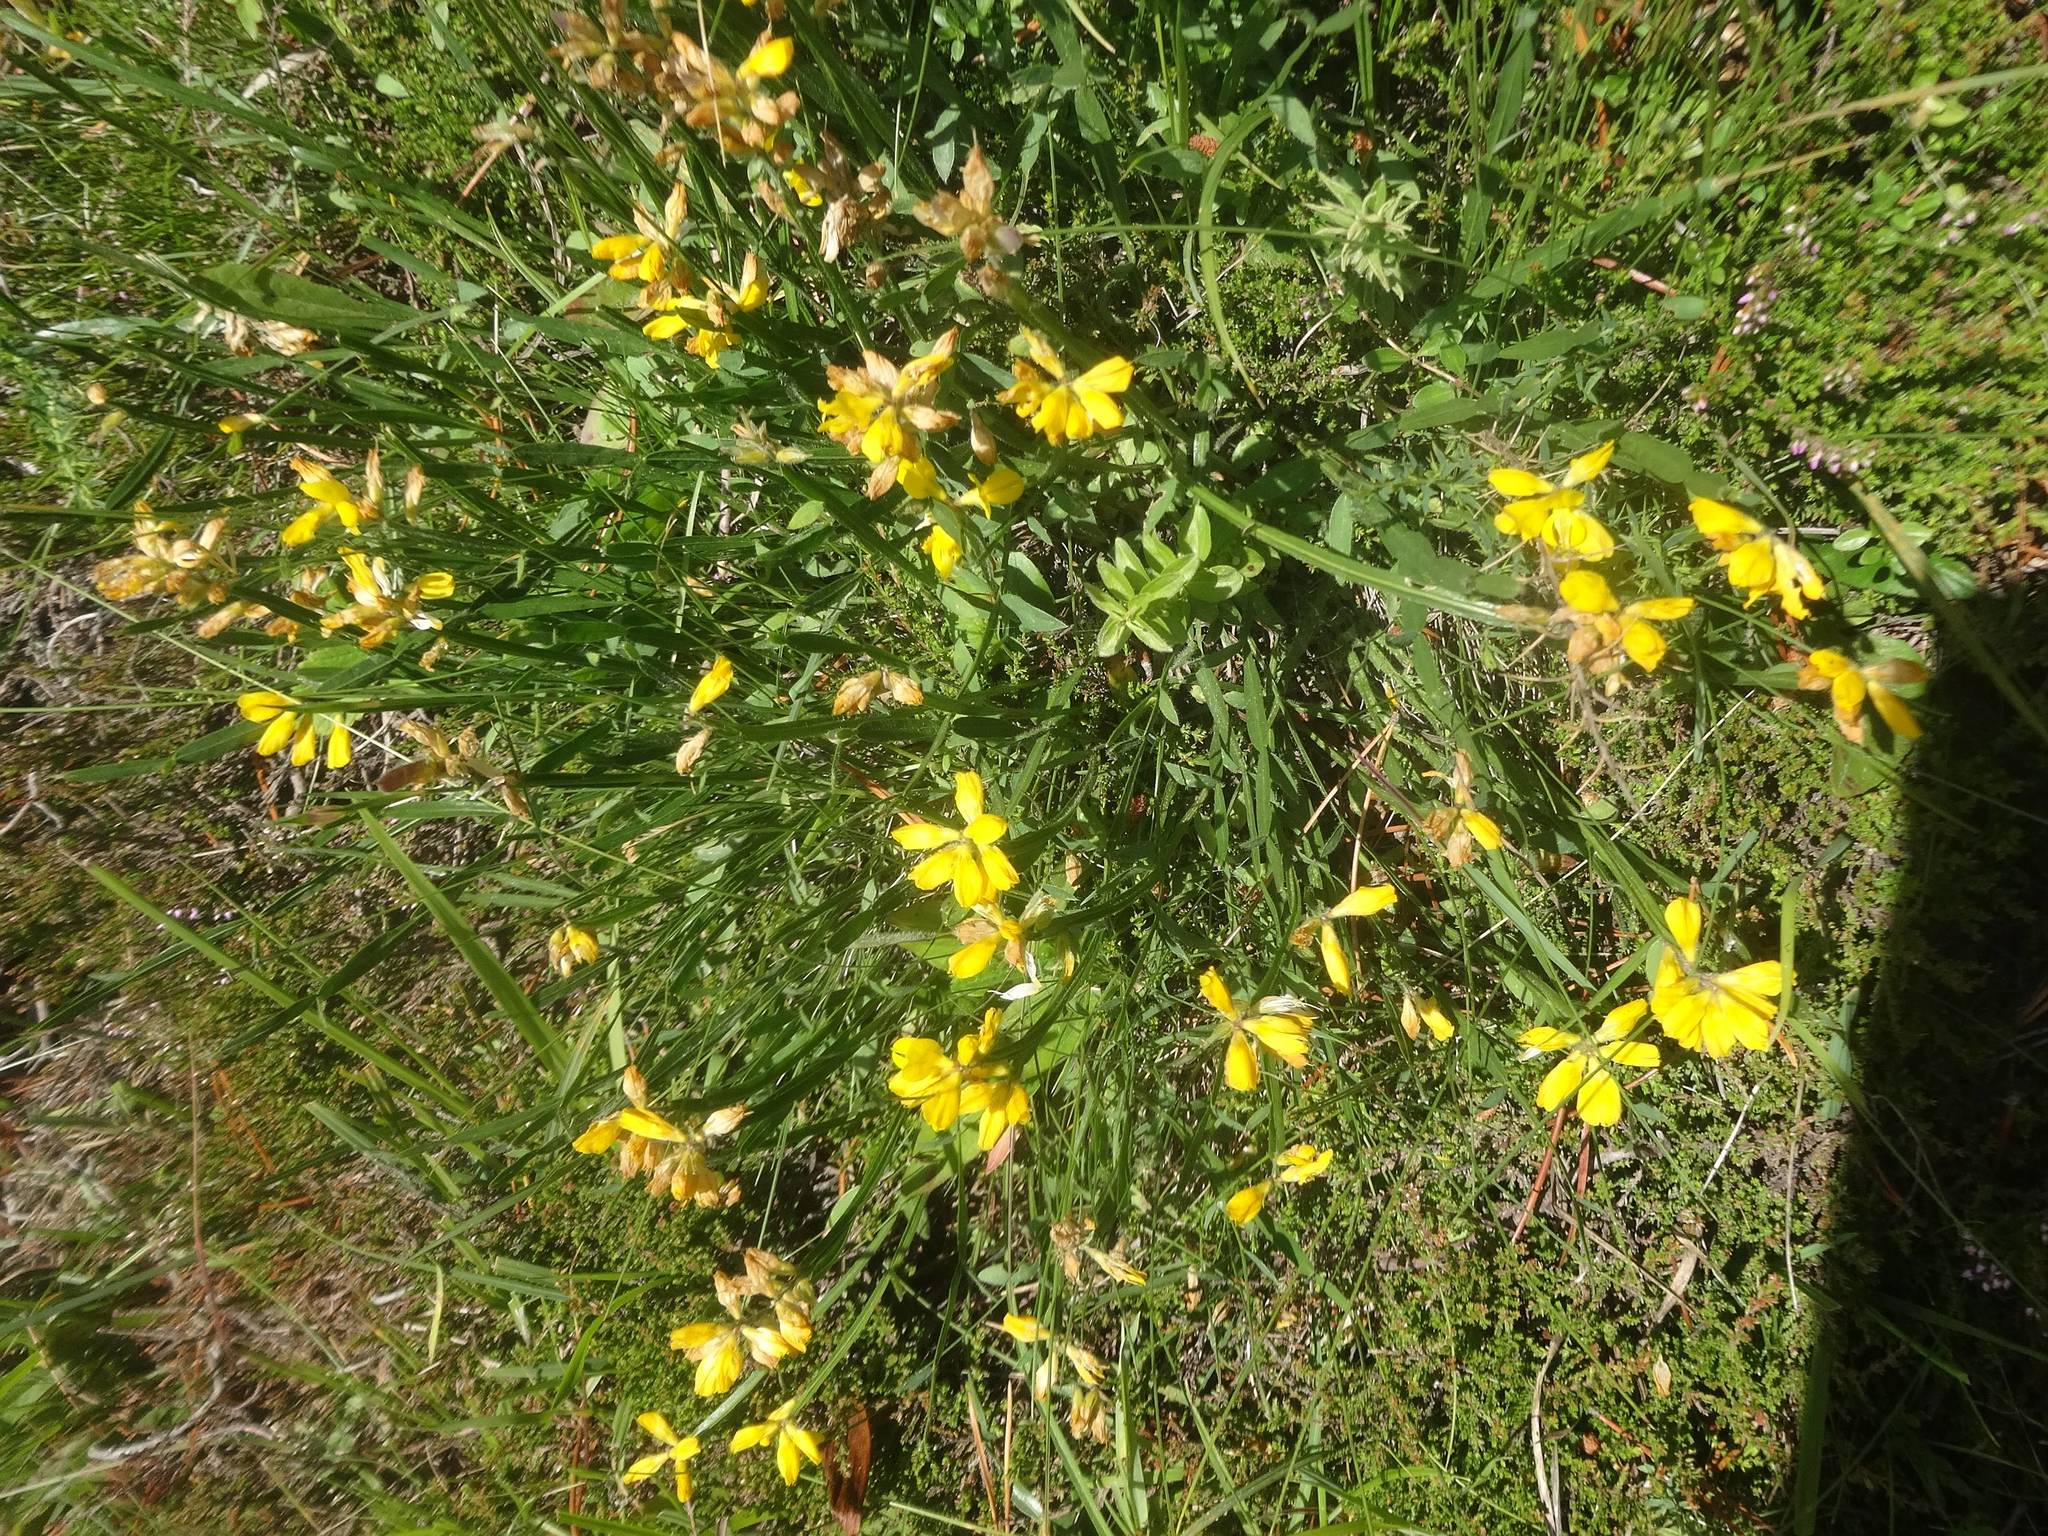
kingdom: Plantae
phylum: Tracheophyta
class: Magnoliopsida
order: Fabales
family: Fabaceae
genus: Genista
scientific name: Genista sagittalis
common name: Winged greenweed
